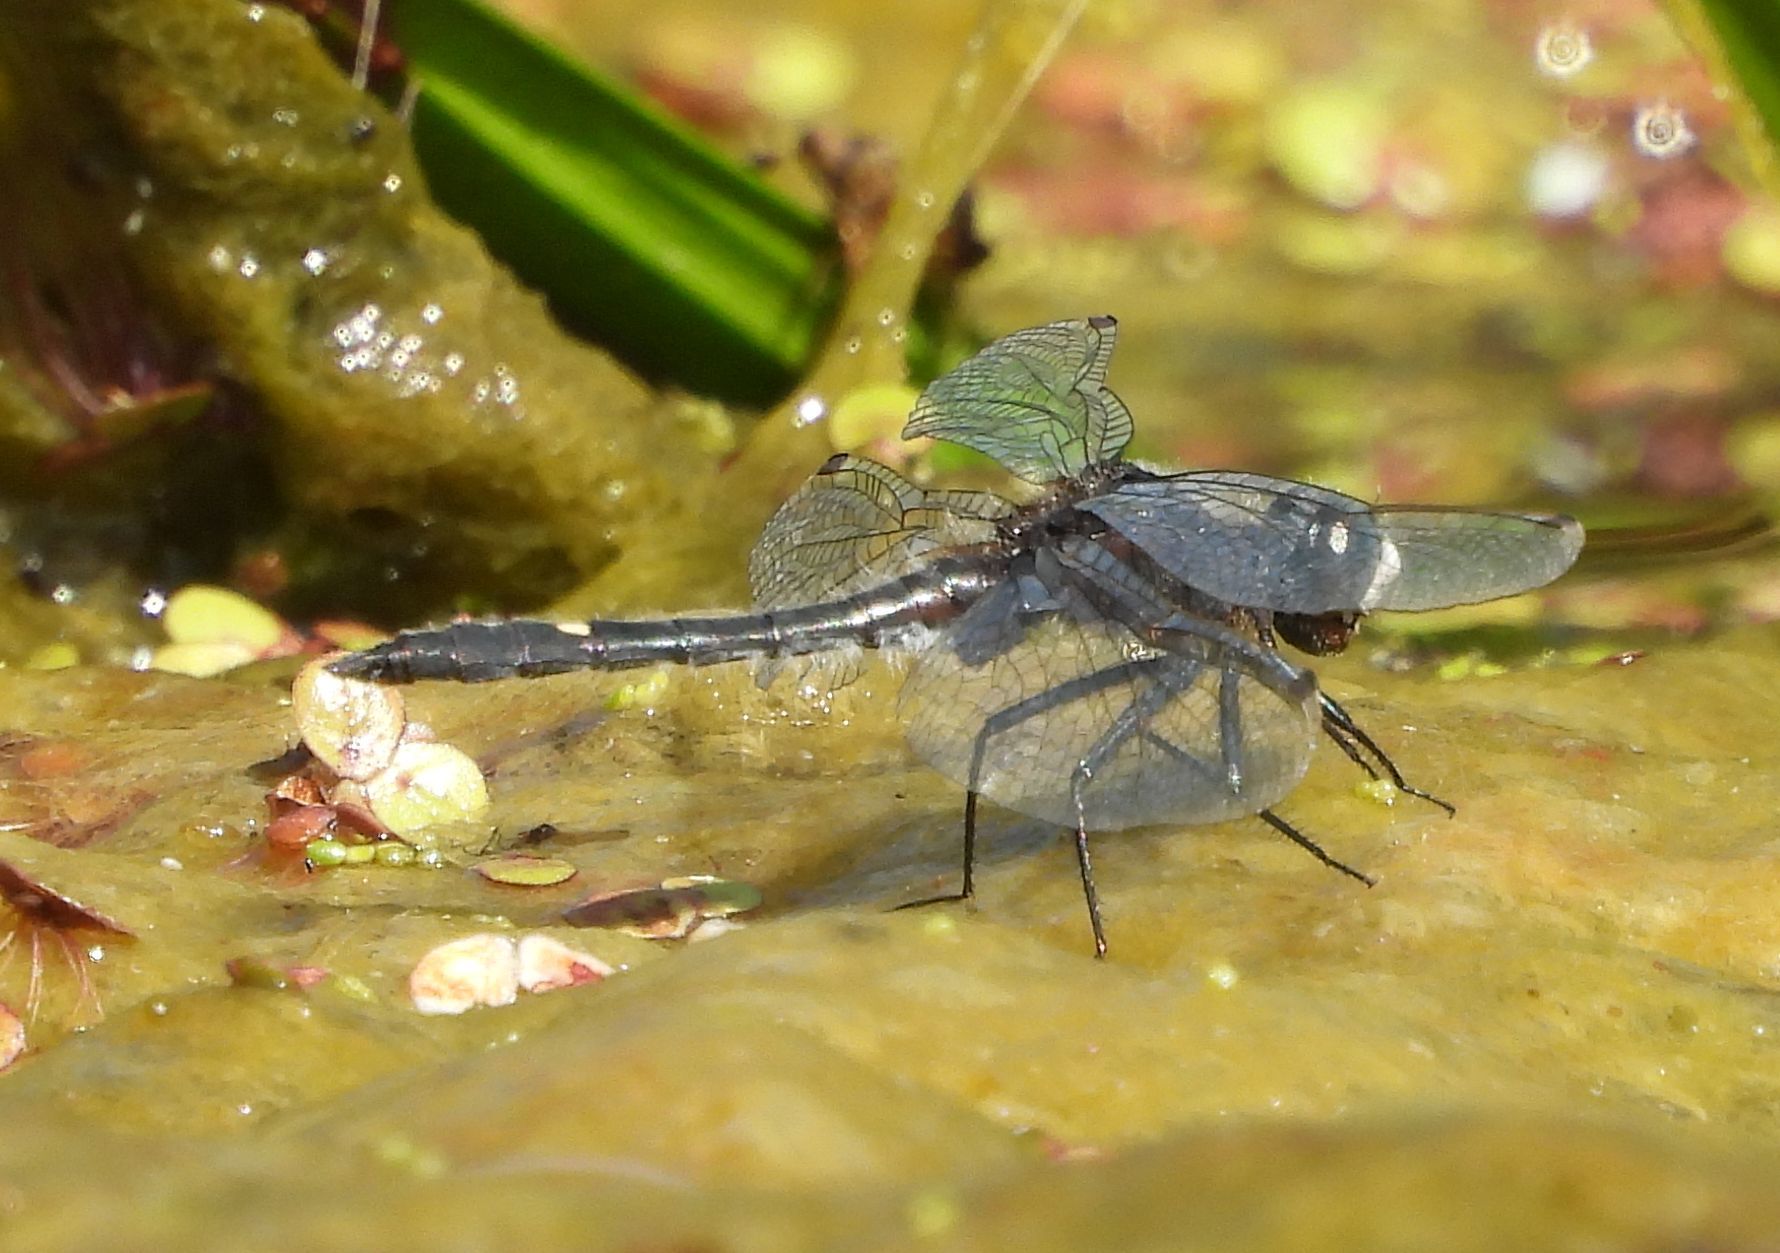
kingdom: Animalia
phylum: Arthropoda
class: Insecta
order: Odonata
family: Libellulidae
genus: Leucorrhinia
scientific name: Leucorrhinia intacta
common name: Dot-tailed whiteface
